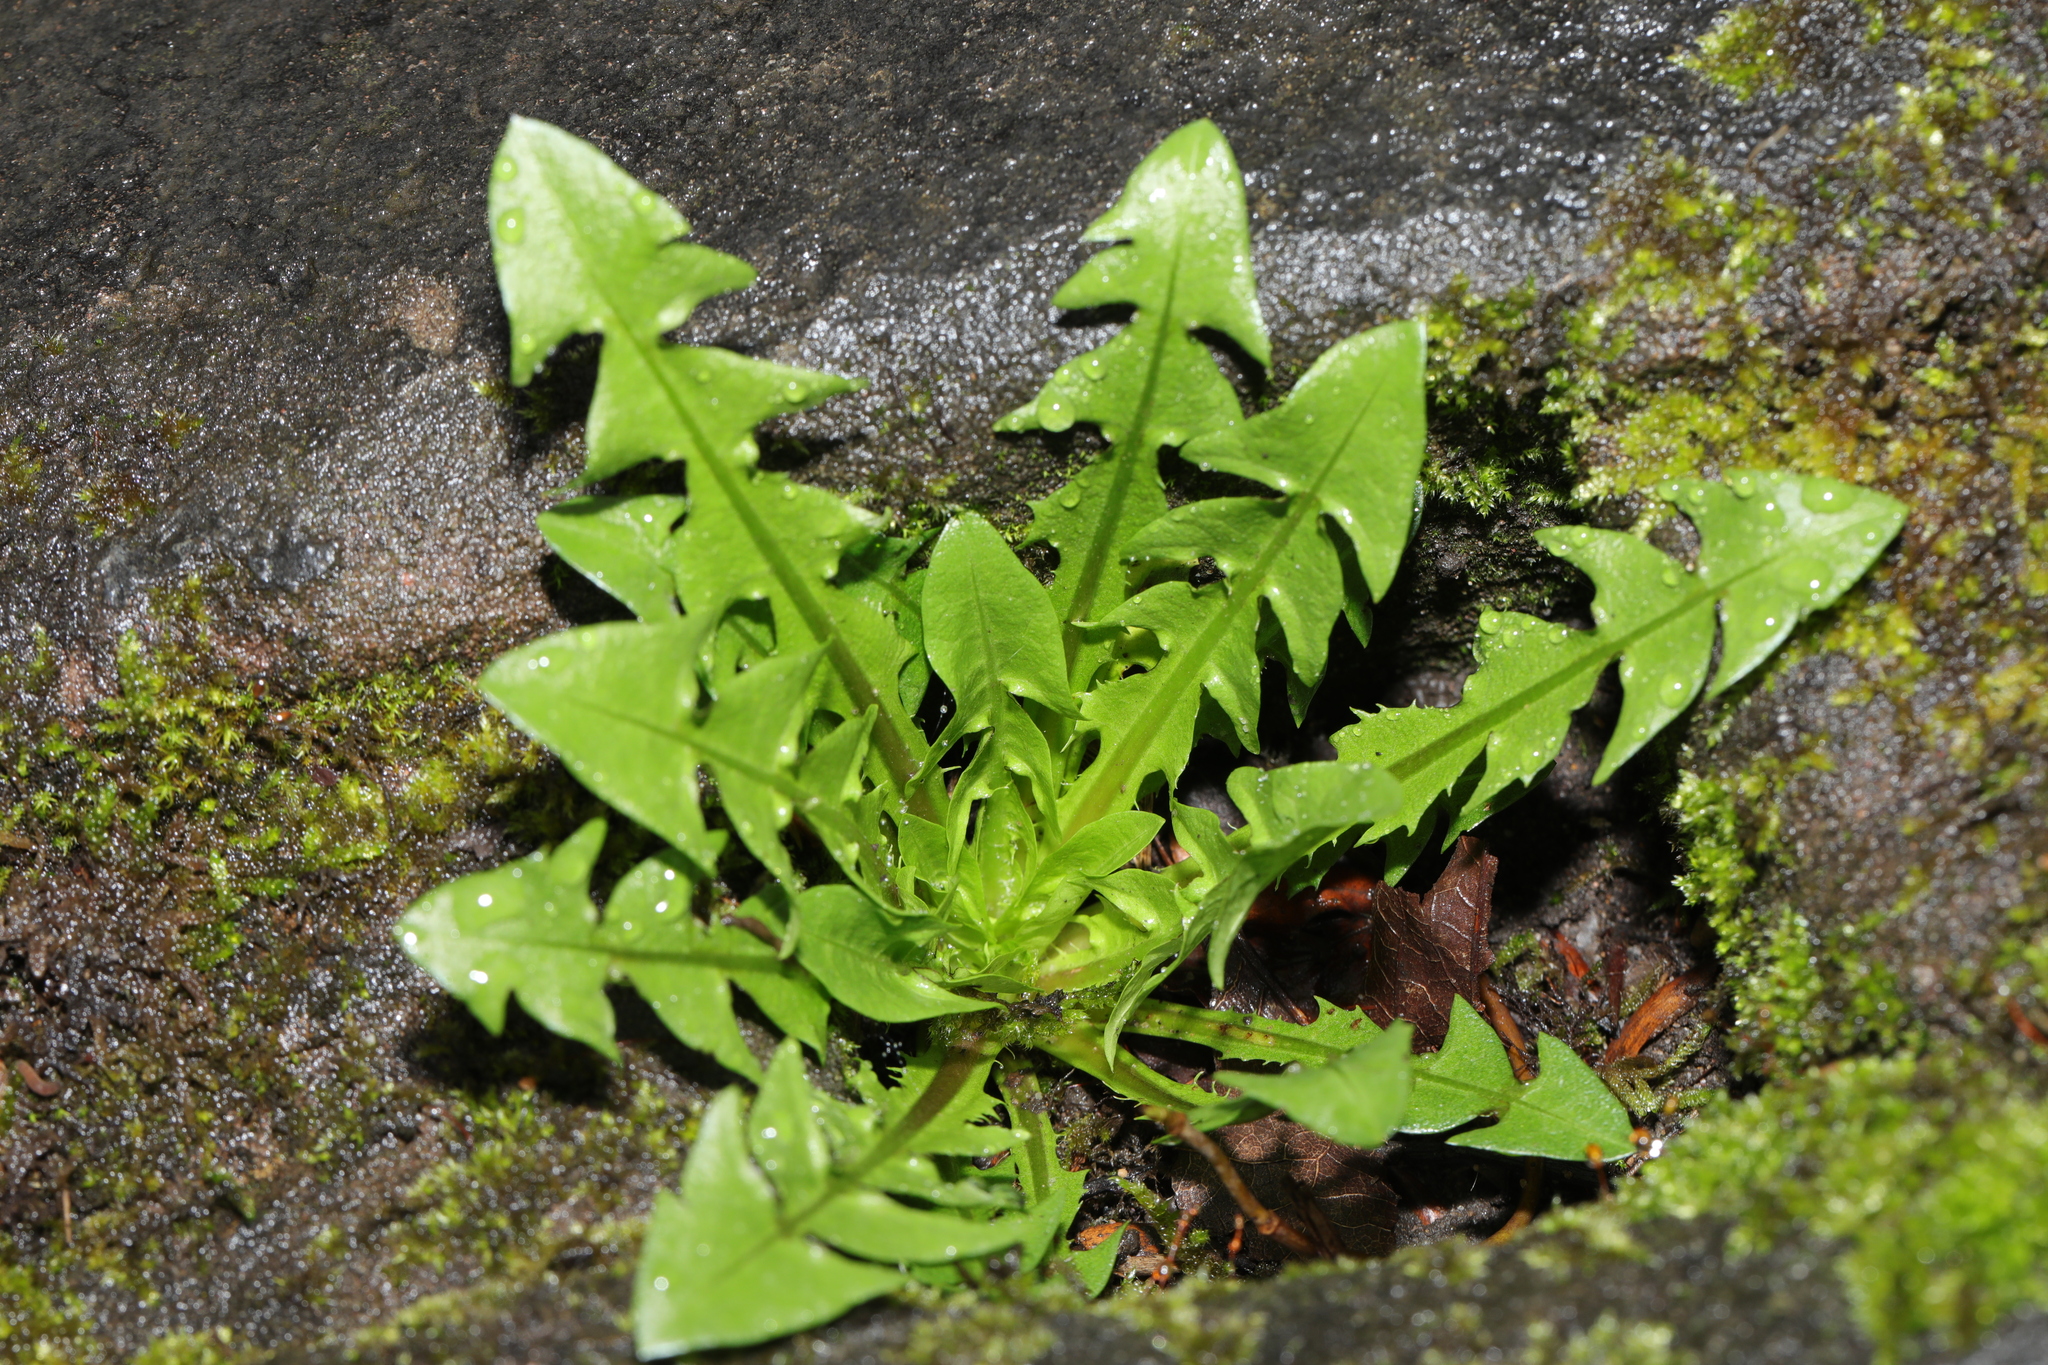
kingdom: Plantae
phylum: Tracheophyta
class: Magnoliopsida
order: Asterales
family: Asteraceae
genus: Taraxacum
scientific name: Taraxacum officinale
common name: Common dandelion
